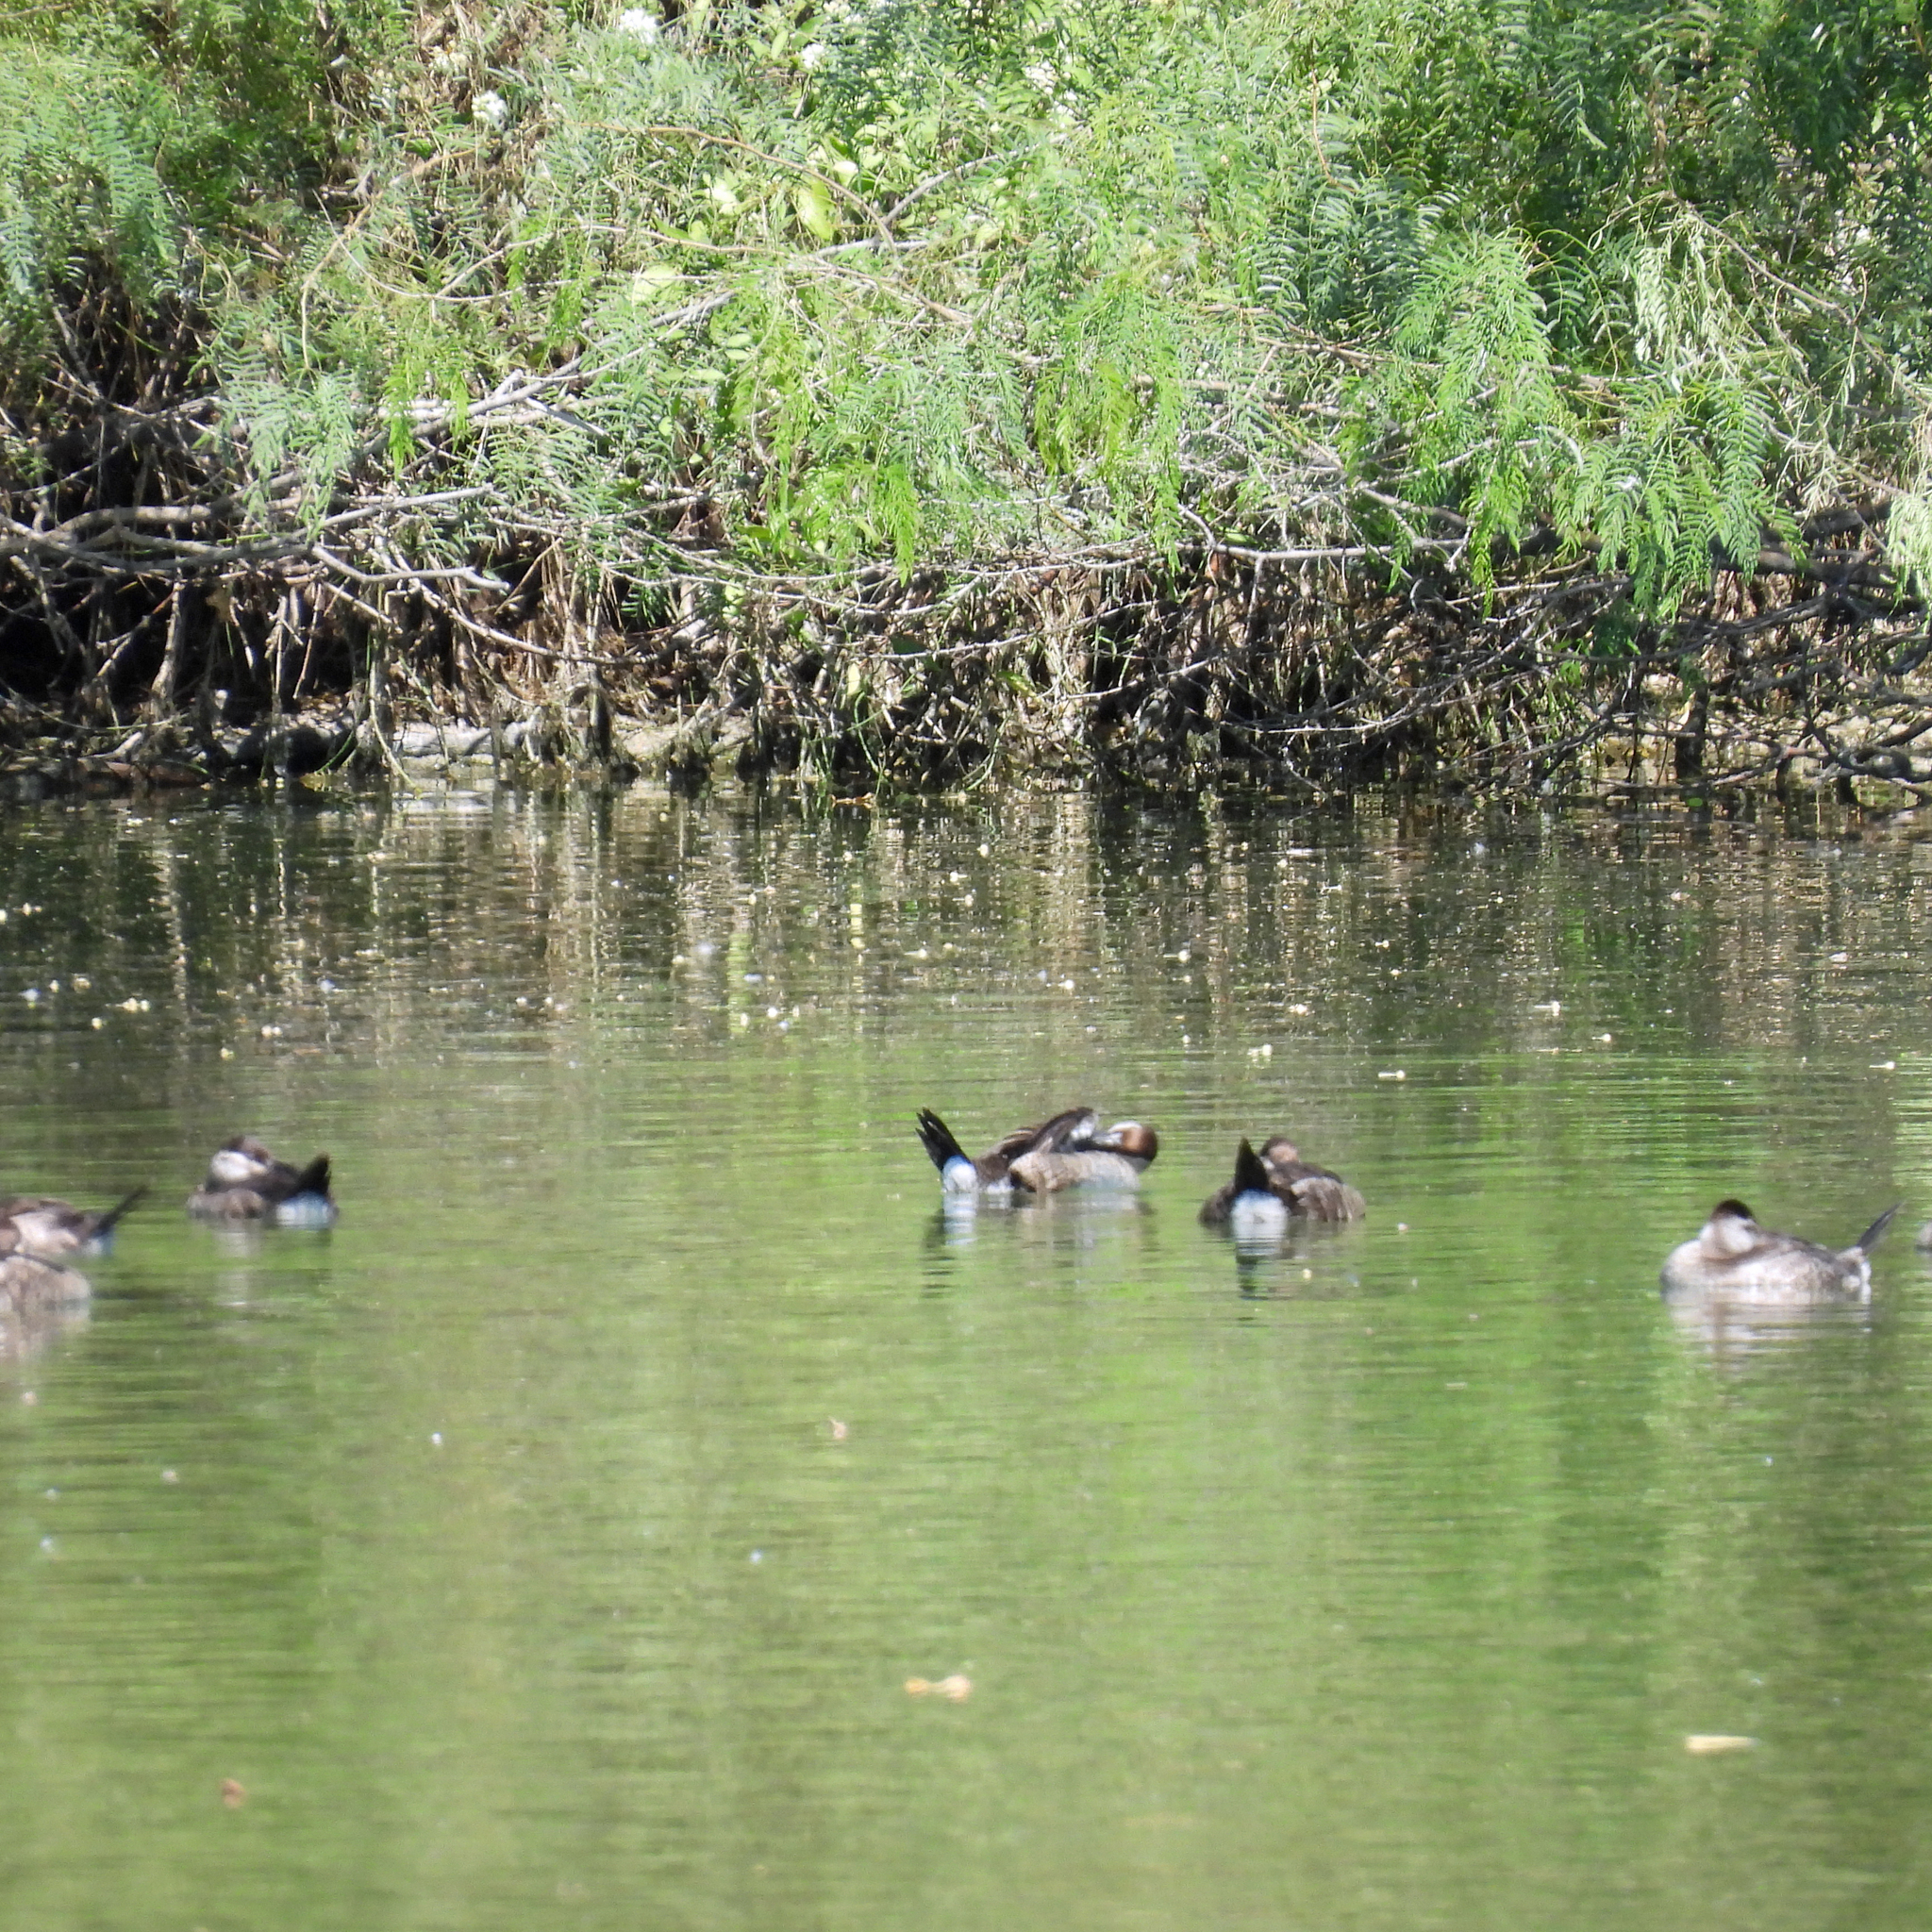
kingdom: Animalia
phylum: Chordata
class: Aves
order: Anseriformes
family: Anatidae
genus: Oxyura
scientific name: Oxyura jamaicensis
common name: Ruddy duck
